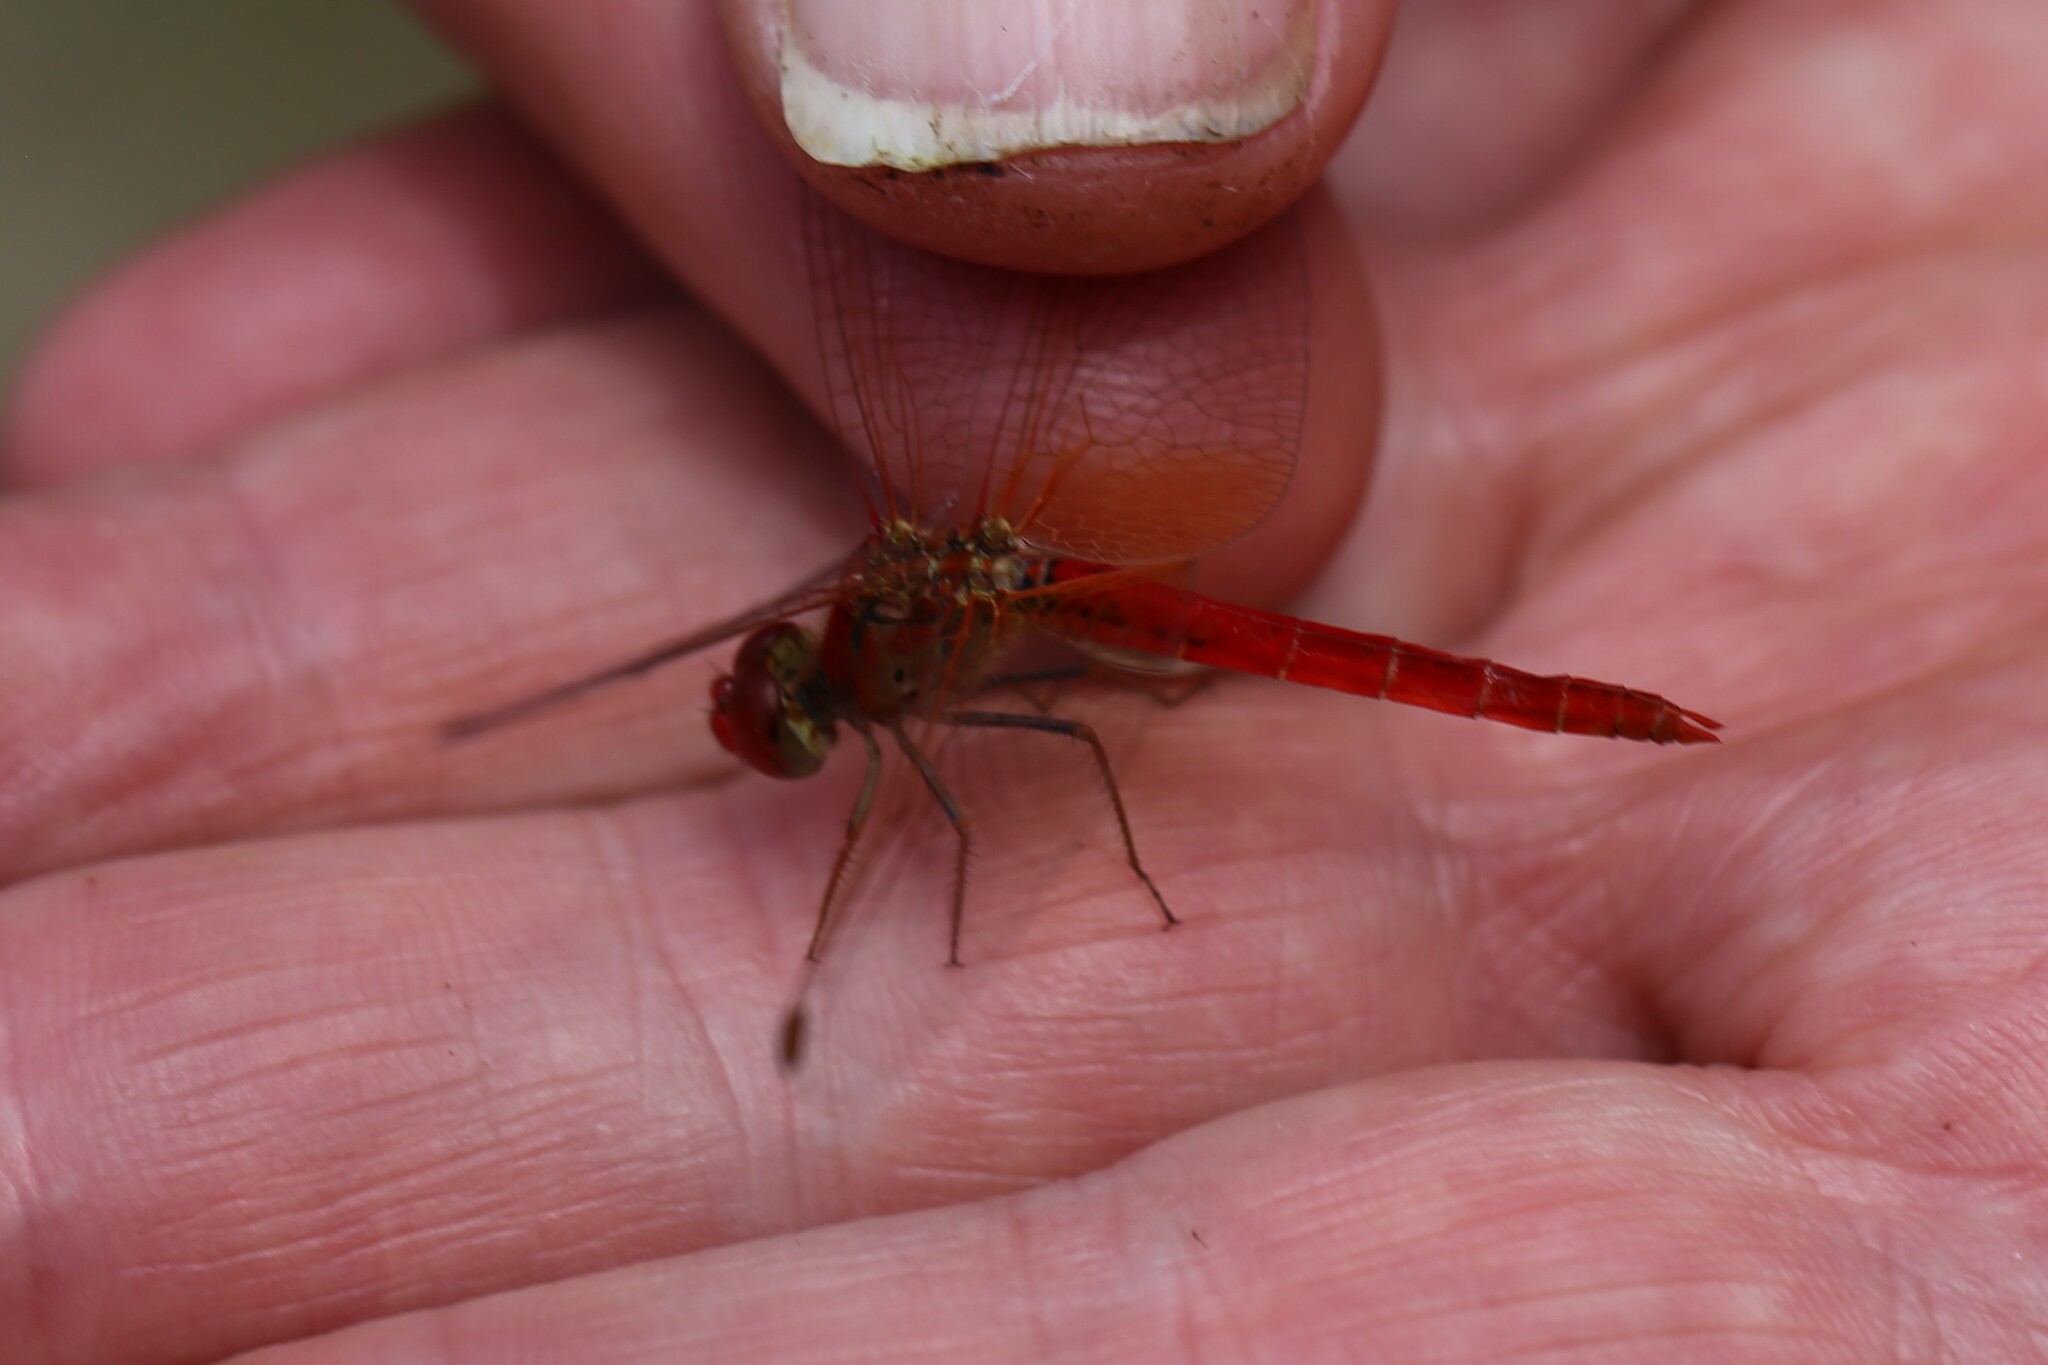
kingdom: Animalia
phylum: Arthropoda
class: Insecta
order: Odonata
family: Libellulidae
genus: Diplacodes
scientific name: Diplacodes haematodes
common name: Scarlet percher
